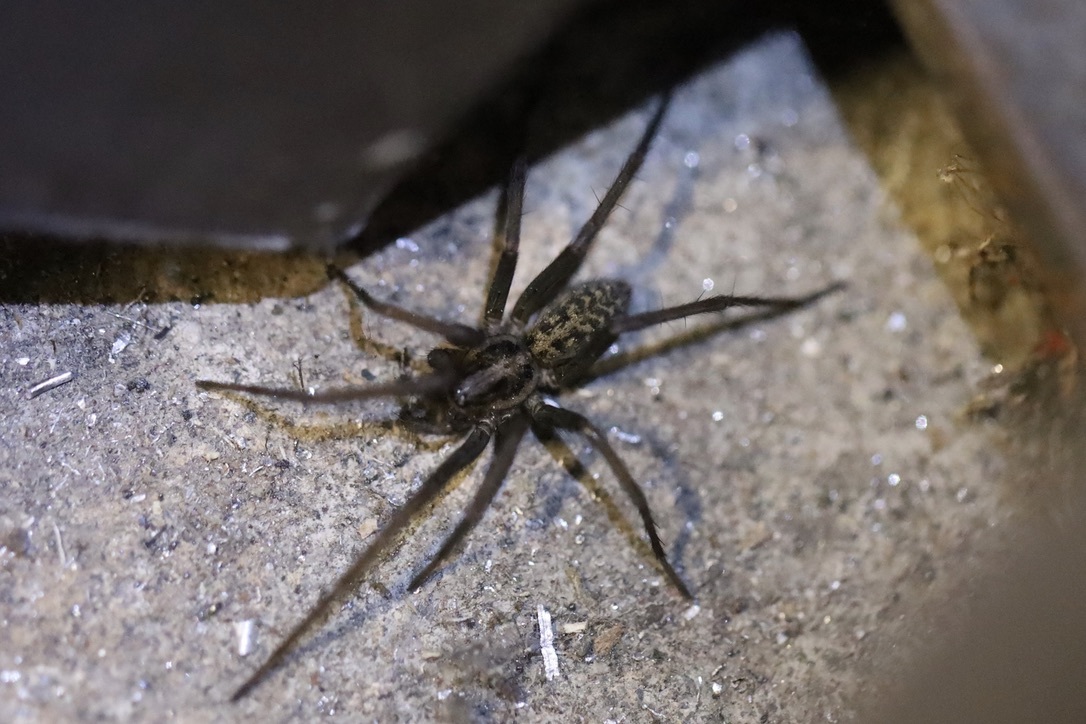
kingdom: Animalia
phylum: Arthropoda
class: Arachnida
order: Araneae
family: Agelenidae
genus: Eratigena
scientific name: Eratigena duellica
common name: Giant house spider
